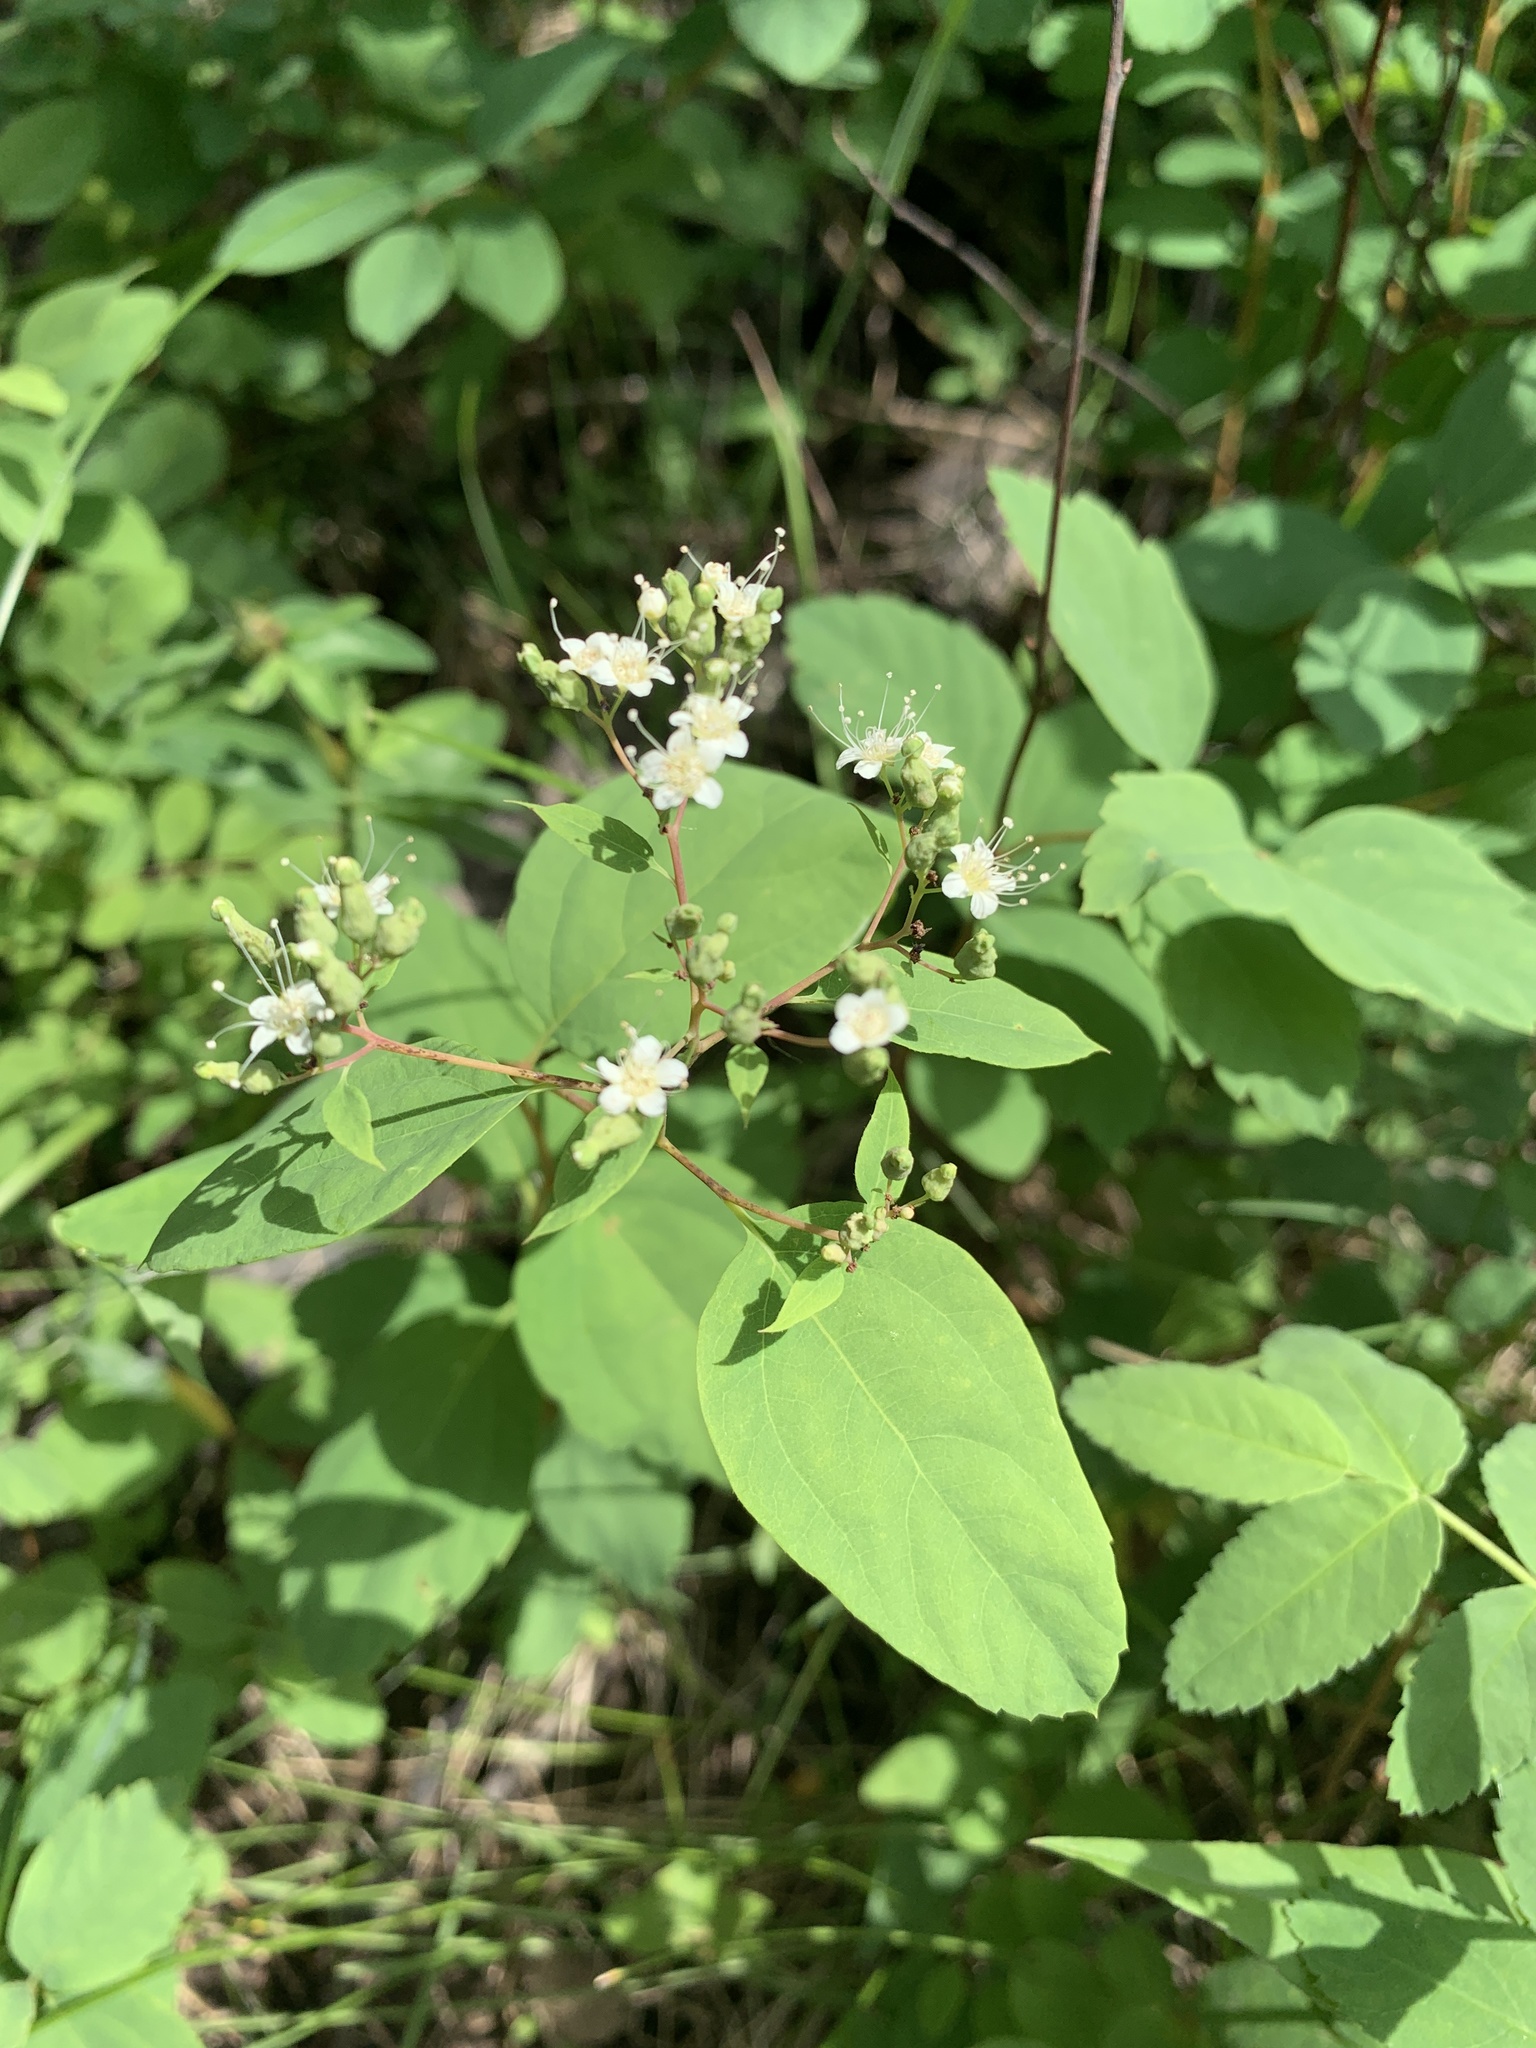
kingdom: Plantae
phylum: Tracheophyta
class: Magnoliopsida
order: Rosales
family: Rosaceae
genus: Spiraea
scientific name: Spiraea lucida
